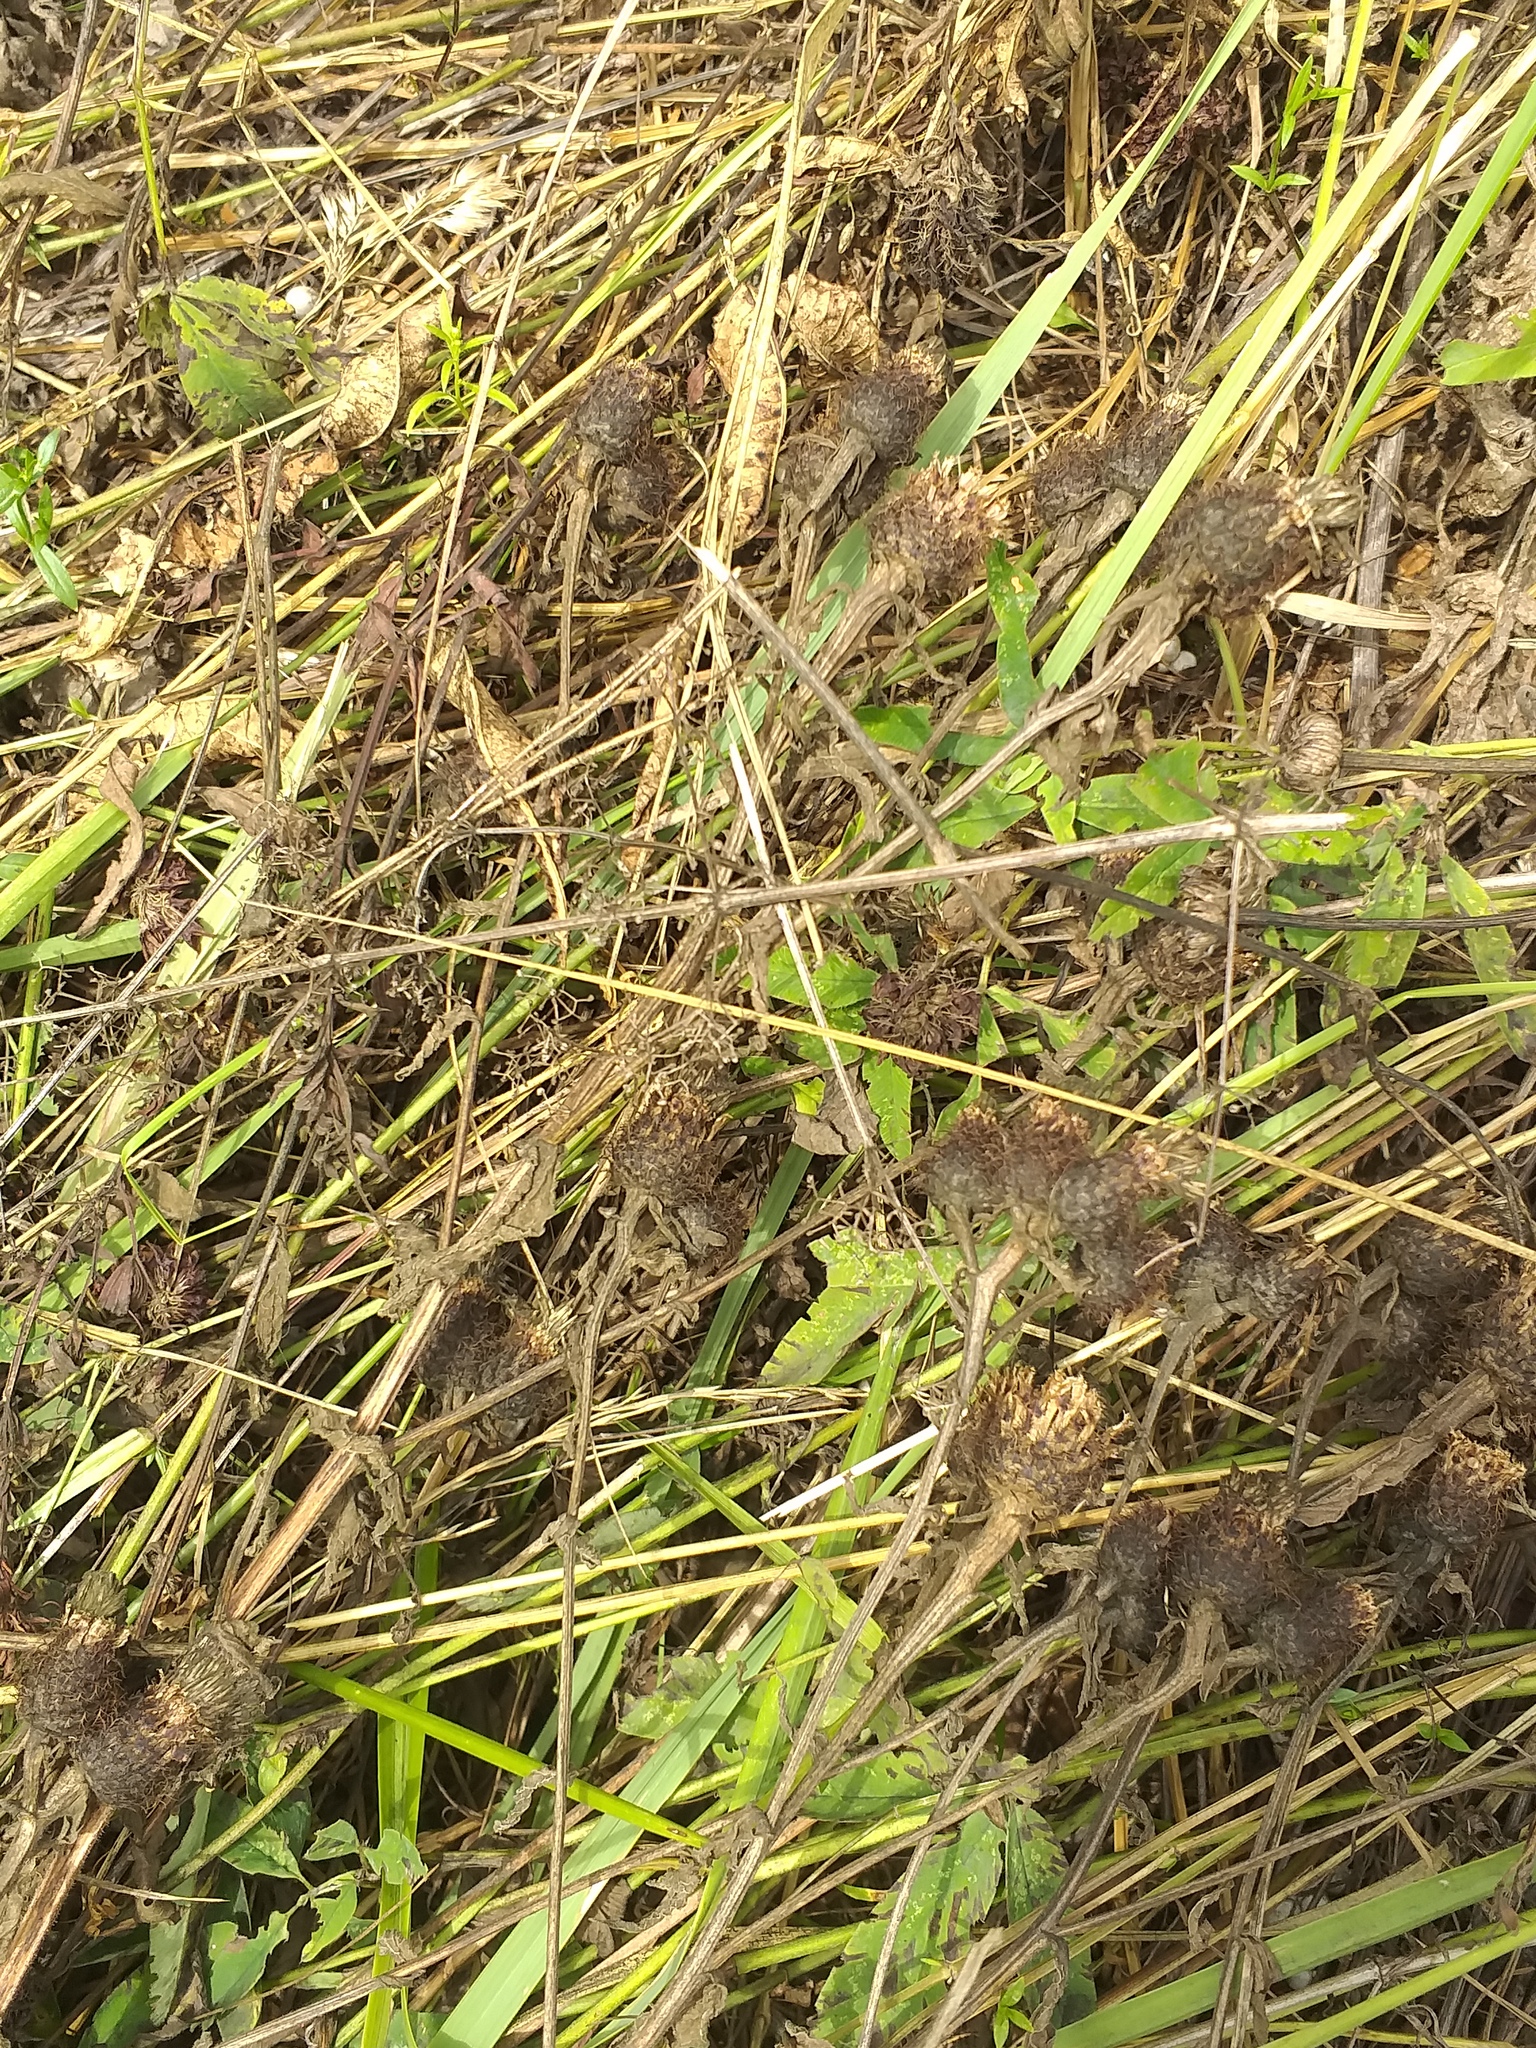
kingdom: Plantae
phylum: Tracheophyta
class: Magnoliopsida
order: Asterales
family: Asteraceae
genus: Centaurea
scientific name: Centaurea phrygia
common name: Wig knapweed
